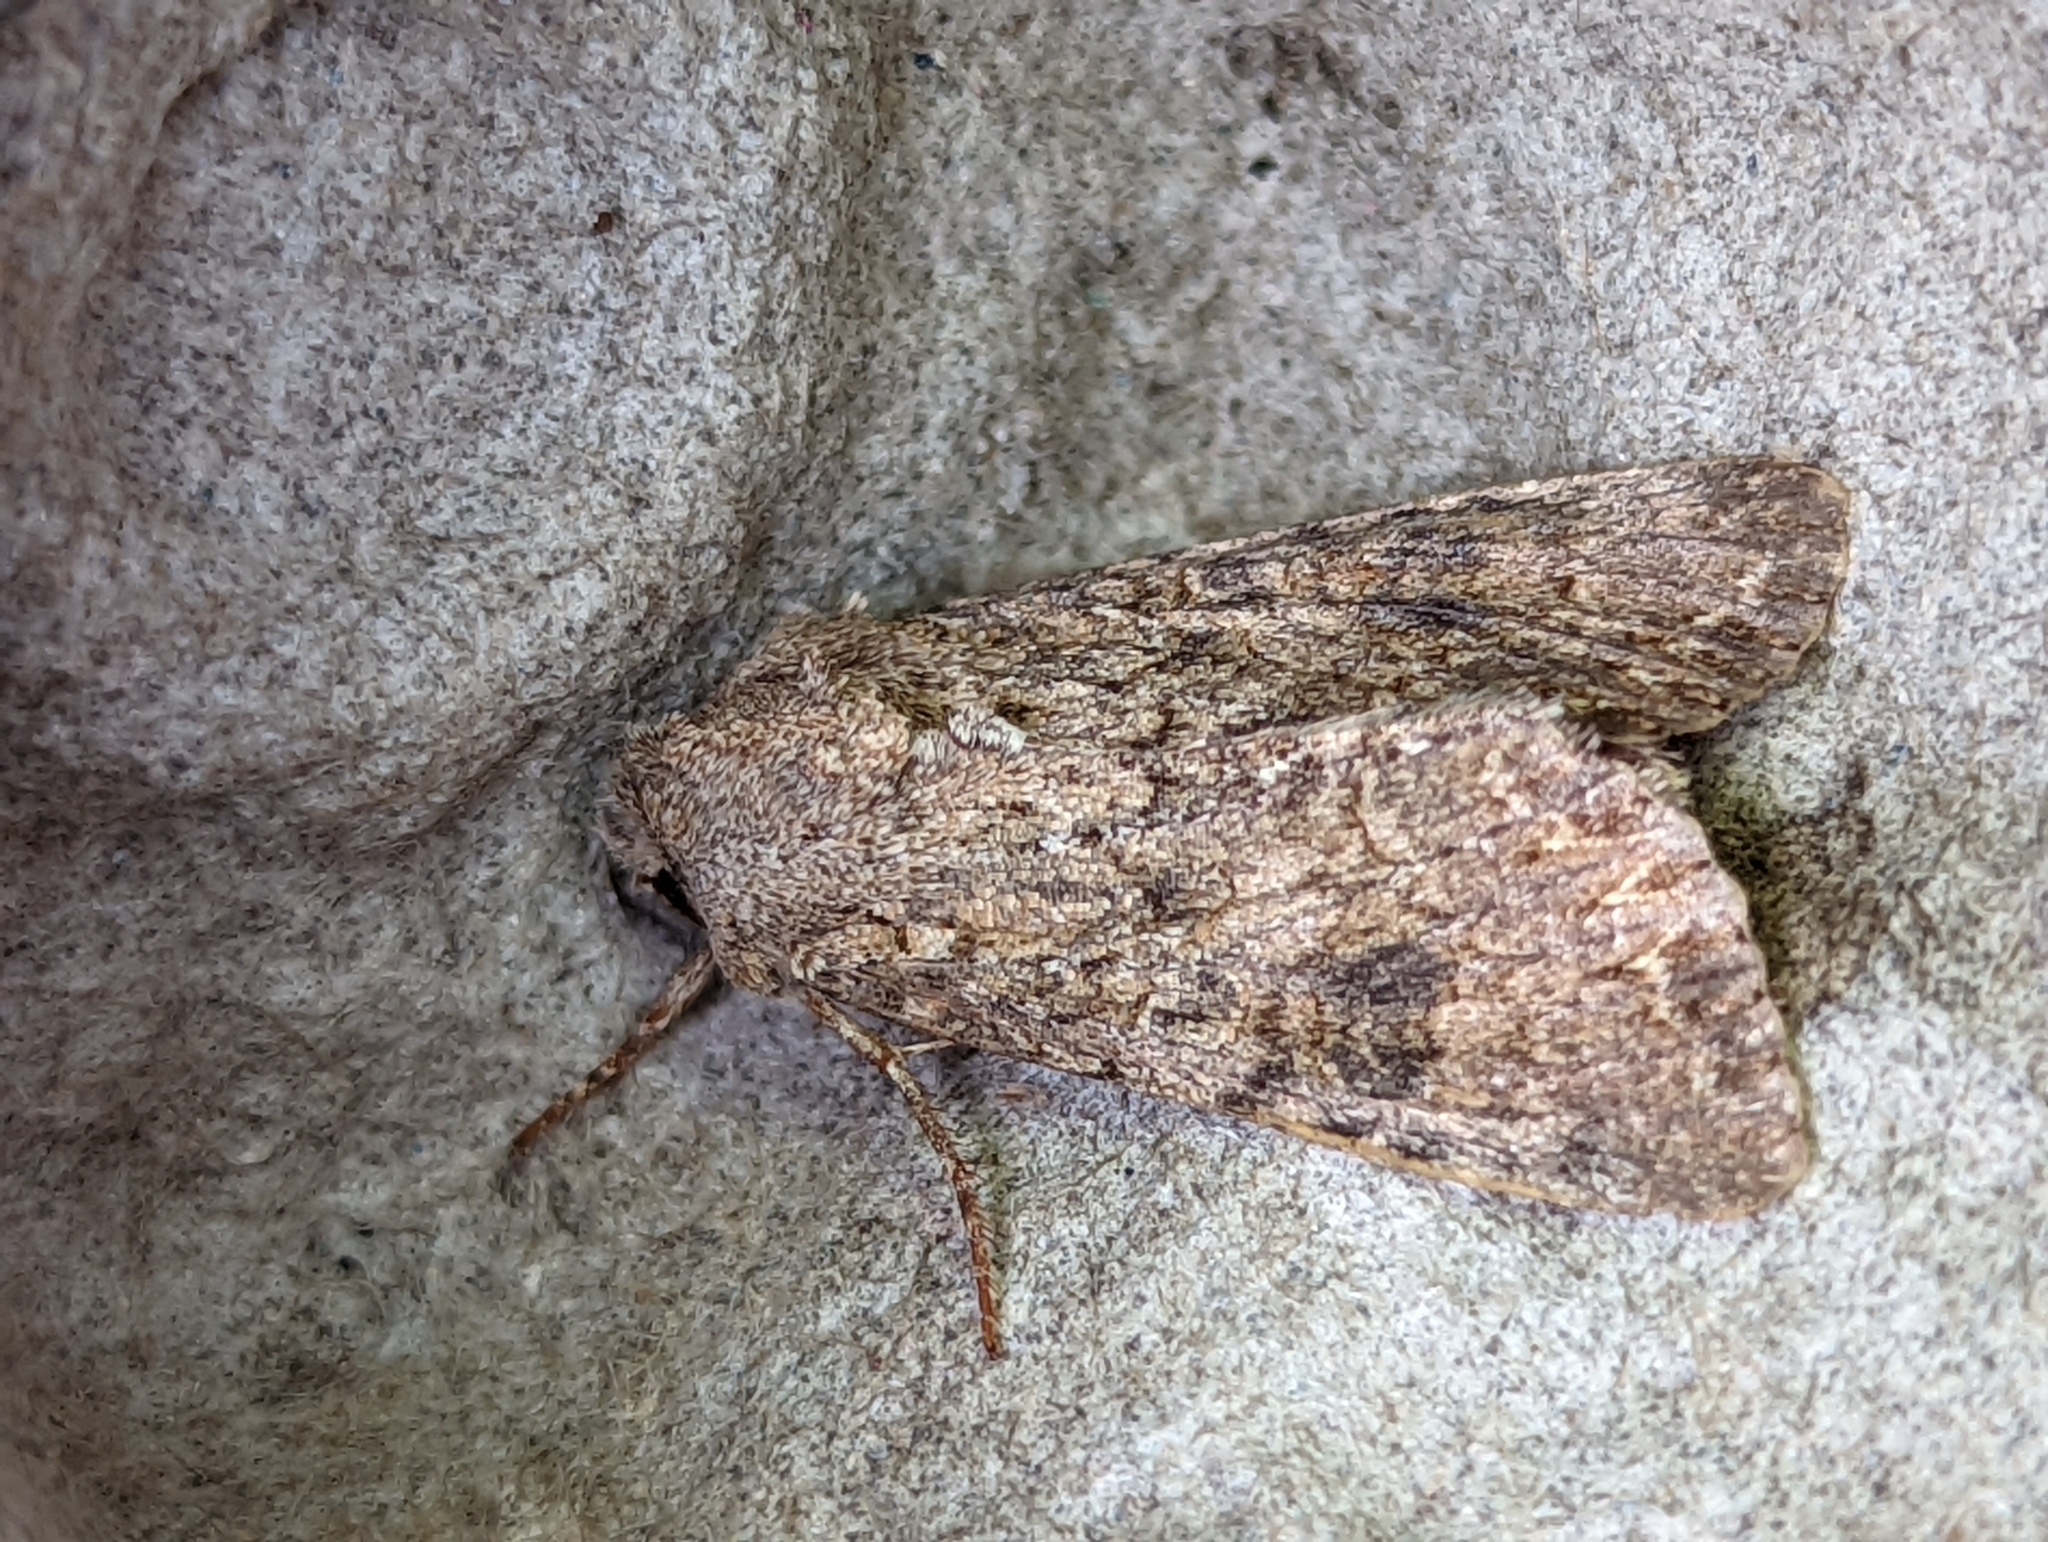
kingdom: Animalia
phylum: Arthropoda
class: Insecta
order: Lepidoptera
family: Noctuidae
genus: Anarta
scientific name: Anarta trifolii
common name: Clover cutworm moth
